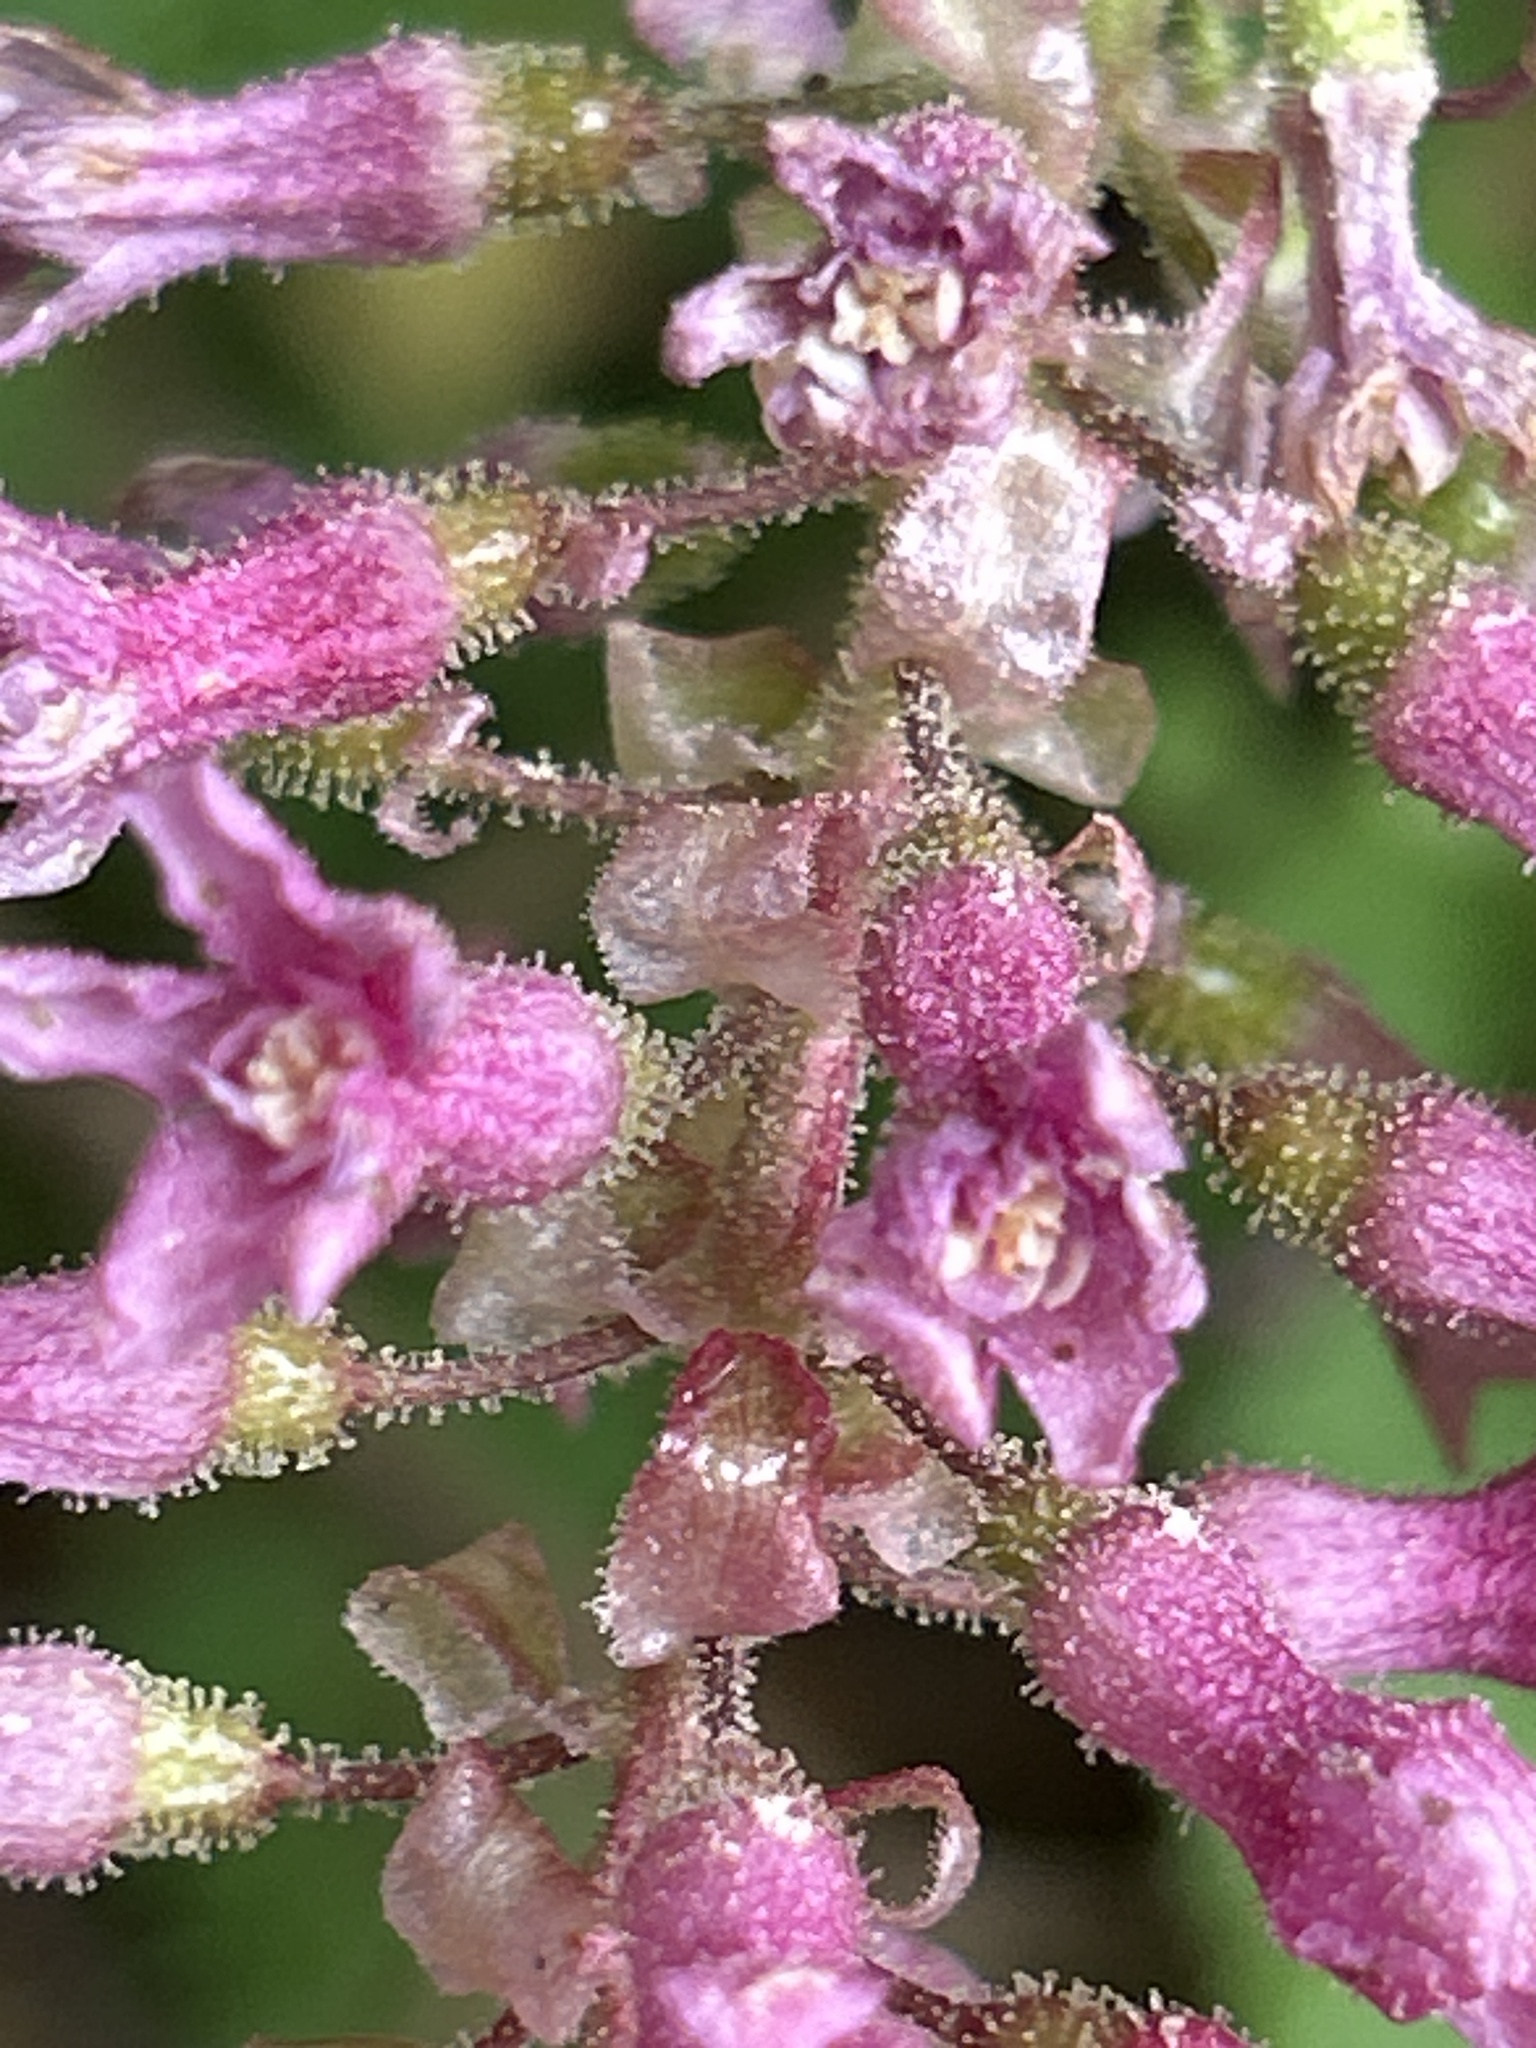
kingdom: Plantae
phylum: Tracheophyta
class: Magnoliopsida
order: Saxifragales
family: Grossulariaceae
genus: Ribes
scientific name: Ribes sanguineum
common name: Flowering currant
